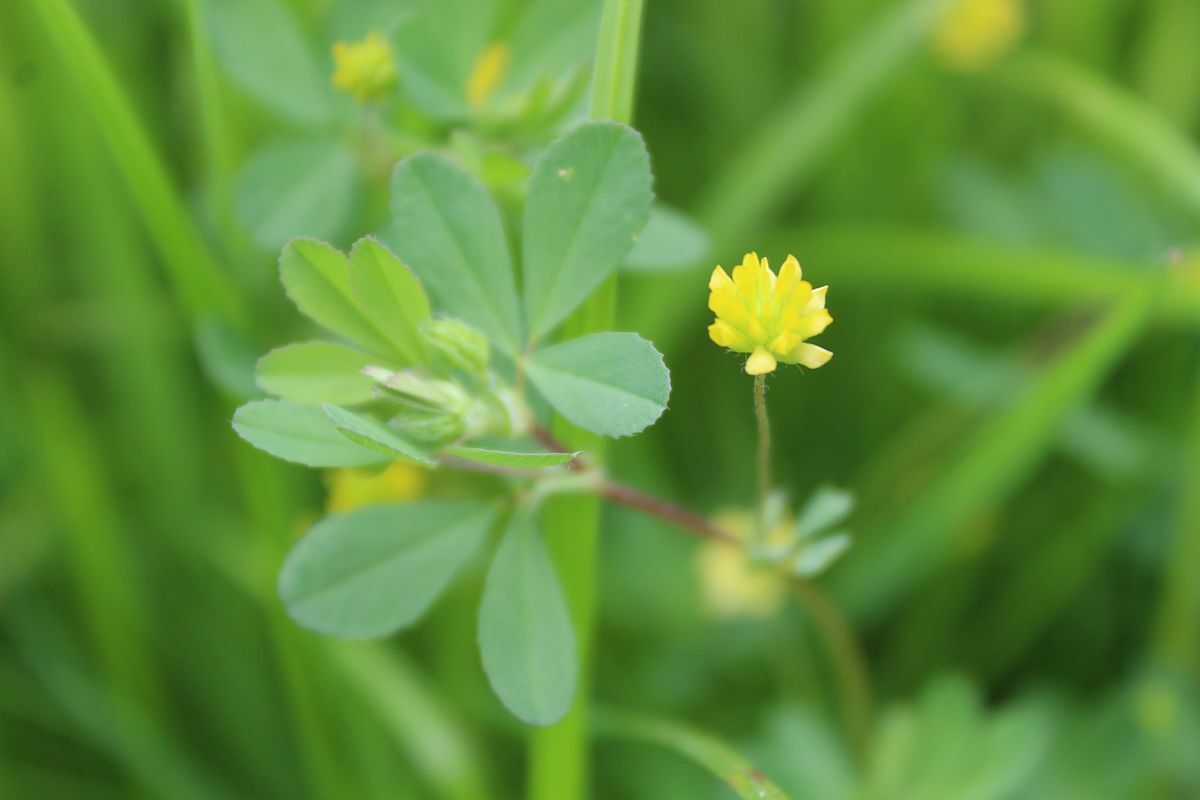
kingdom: Plantae
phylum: Tracheophyta
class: Magnoliopsida
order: Fabales
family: Fabaceae
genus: Trifolium
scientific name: Trifolium dubium
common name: Suckling clover
